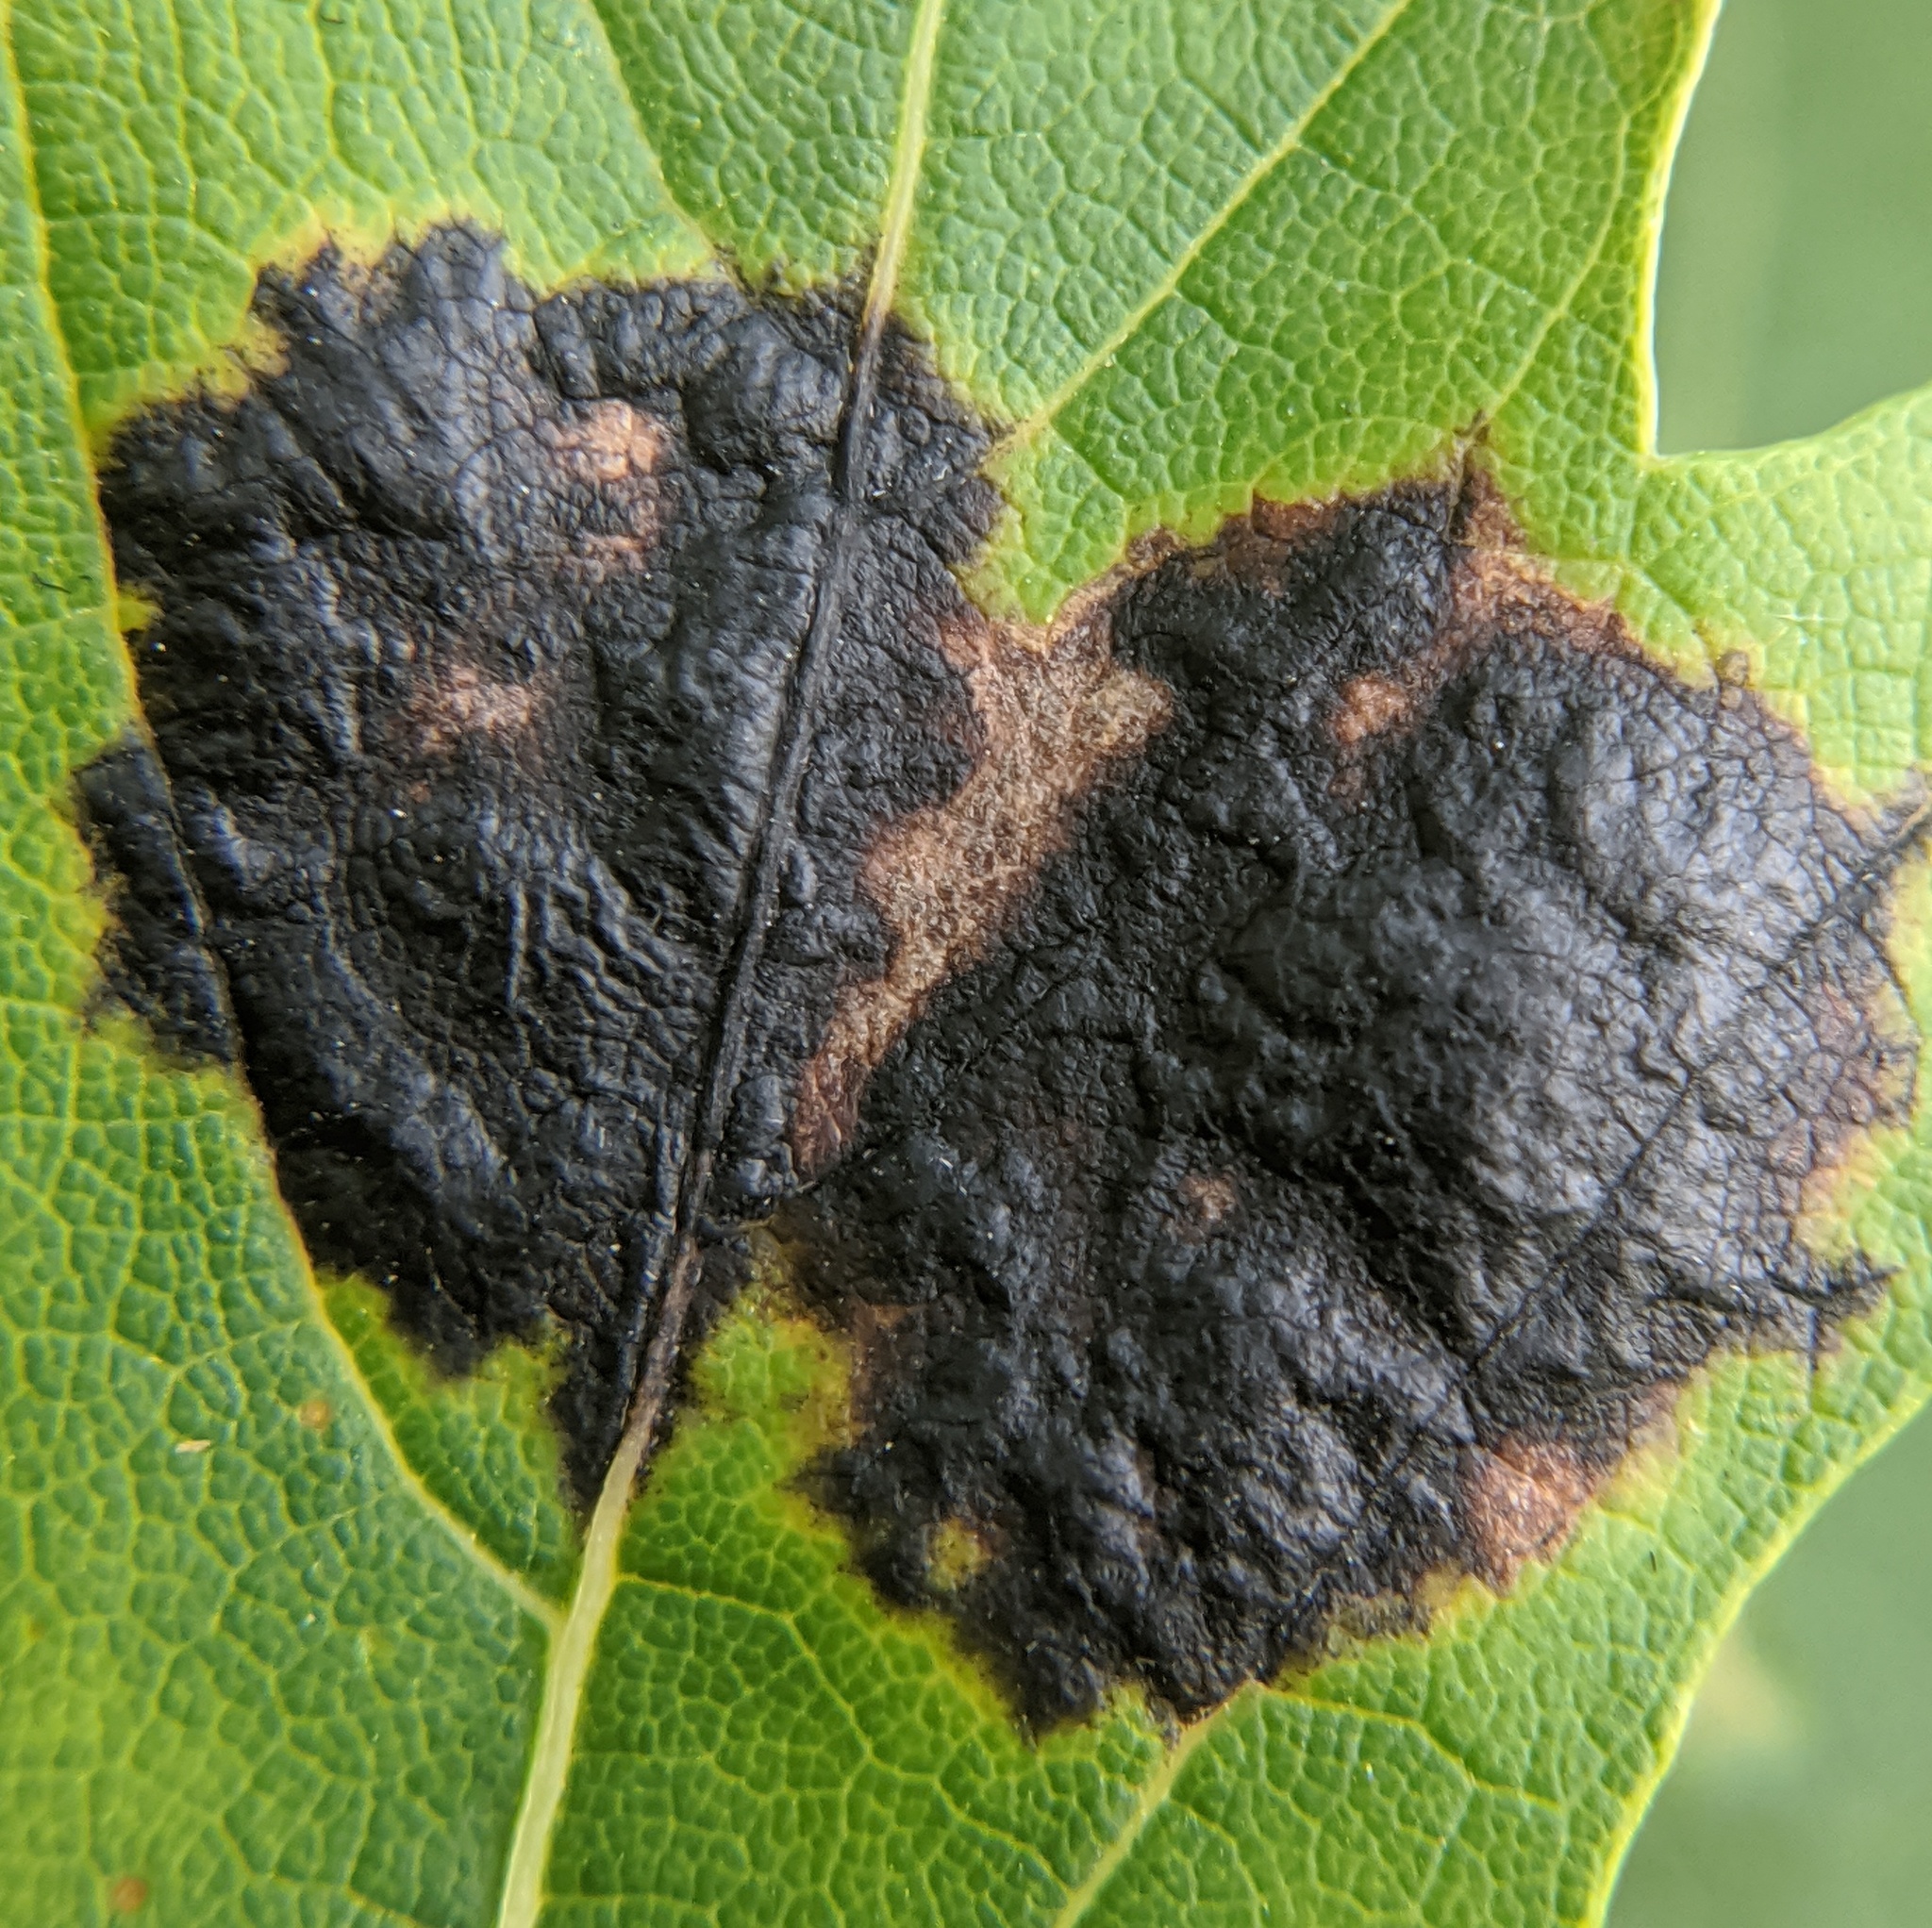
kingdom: Fungi
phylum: Ascomycota
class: Leotiomycetes
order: Rhytismatales
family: Rhytismataceae
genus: Rhytisma
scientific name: Rhytisma americanum
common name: American tar spot
